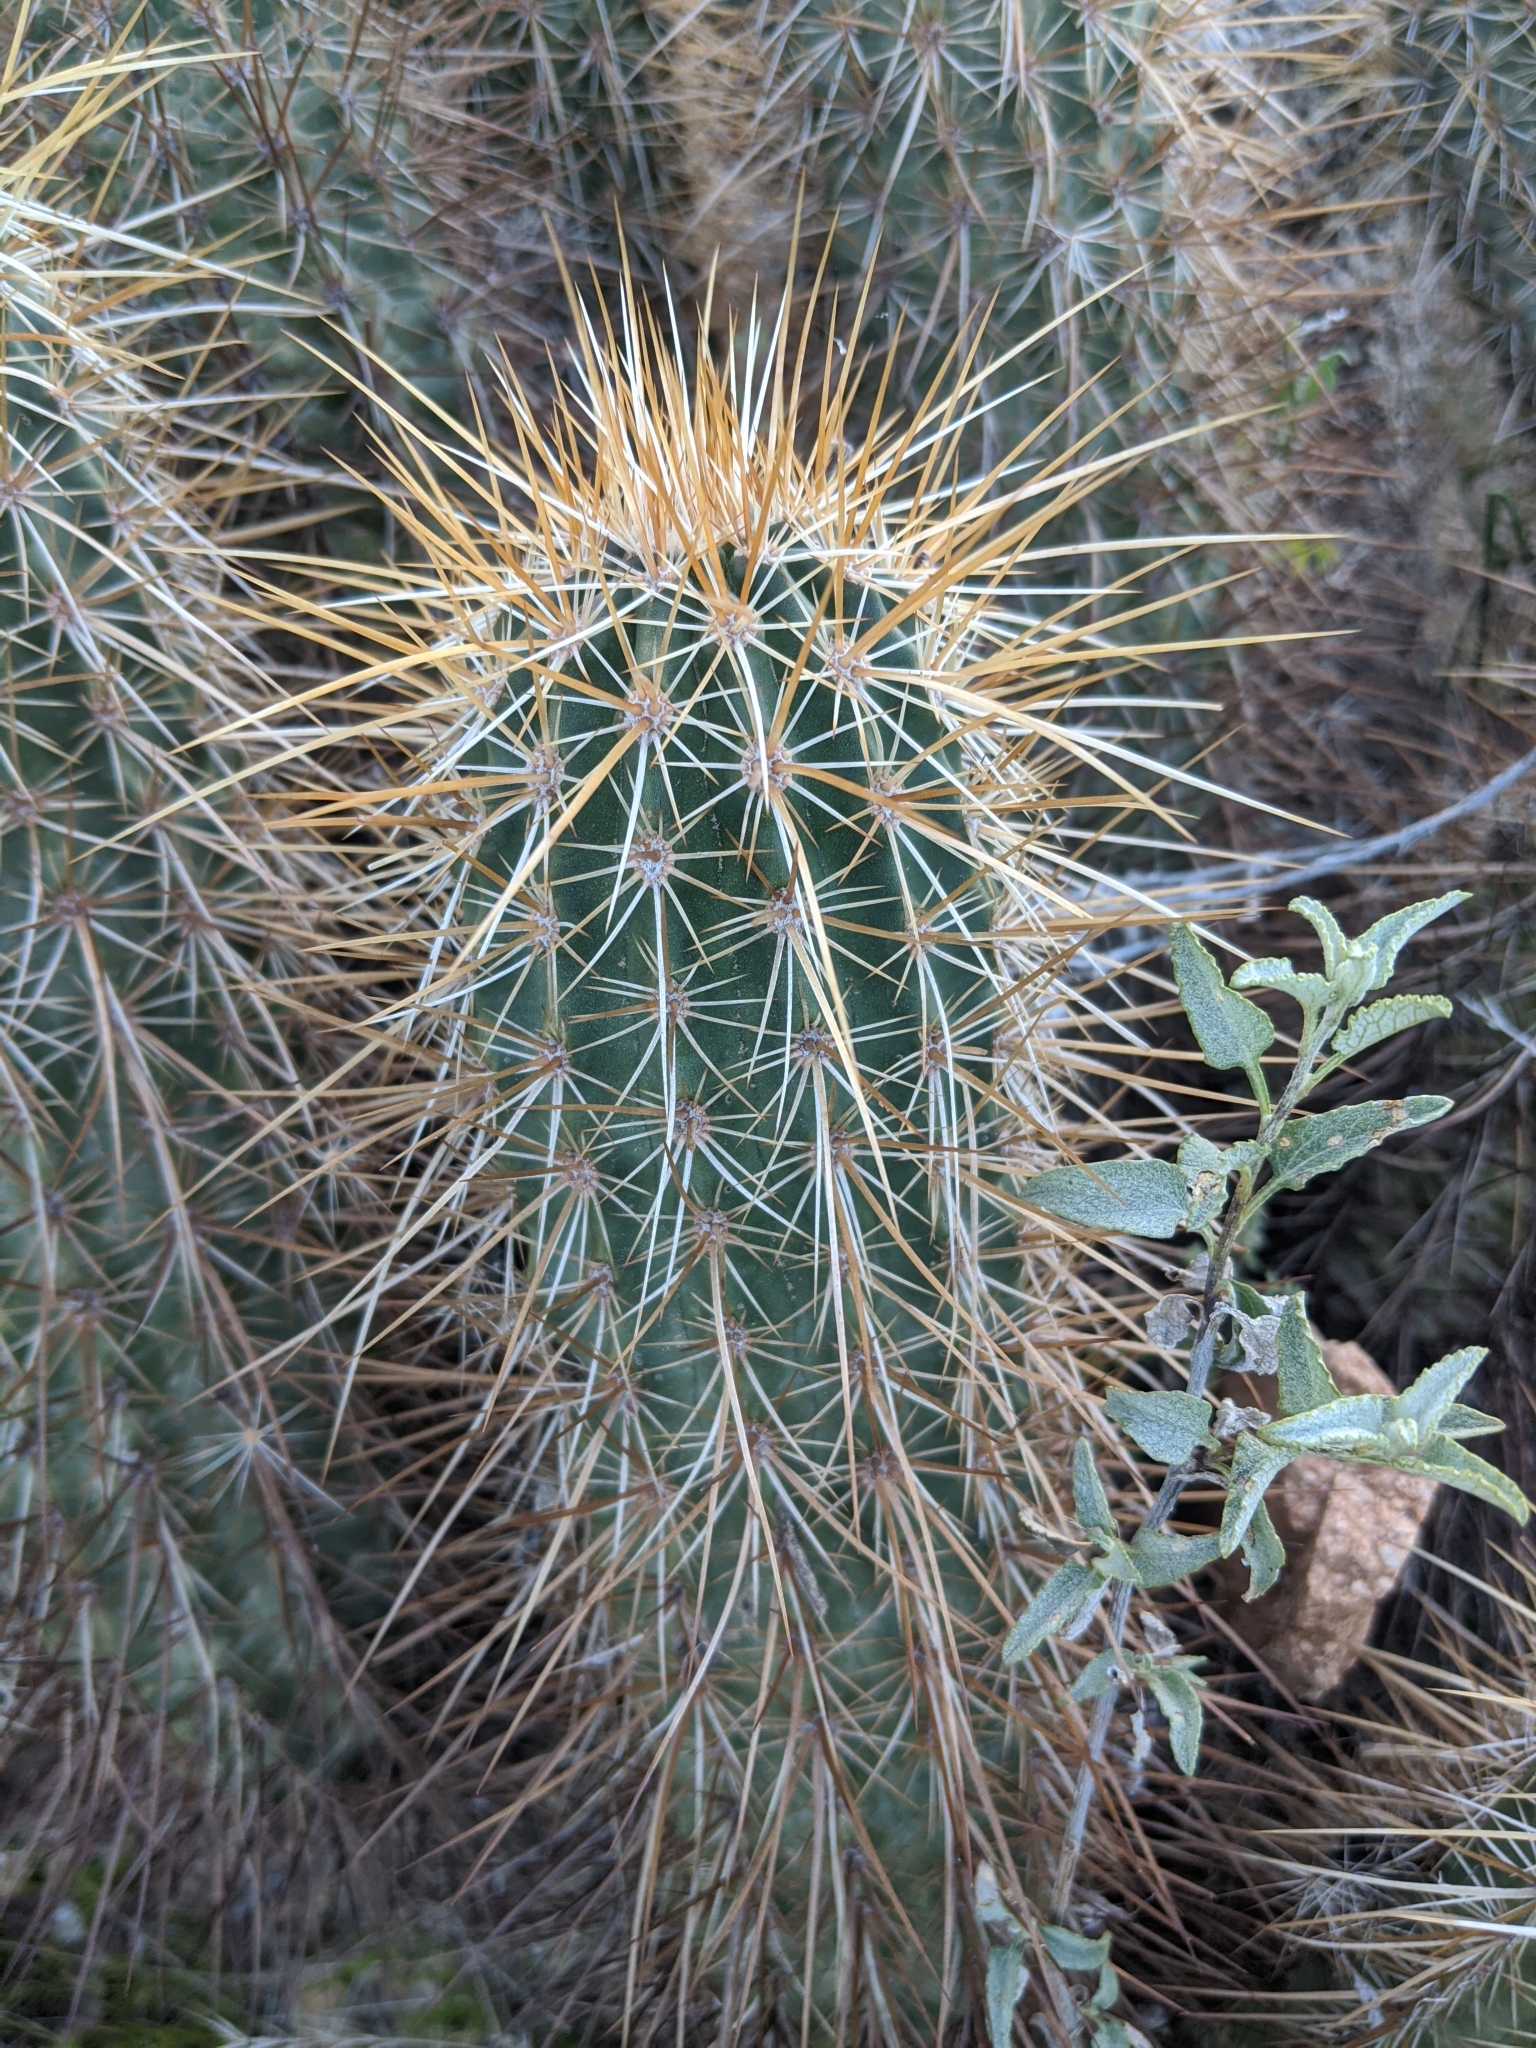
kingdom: Plantae
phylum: Tracheophyta
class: Magnoliopsida
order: Caryophyllales
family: Cactaceae
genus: Echinocereus
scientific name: Echinocereus engelmannii
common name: Engelmann's hedgehog cactus
